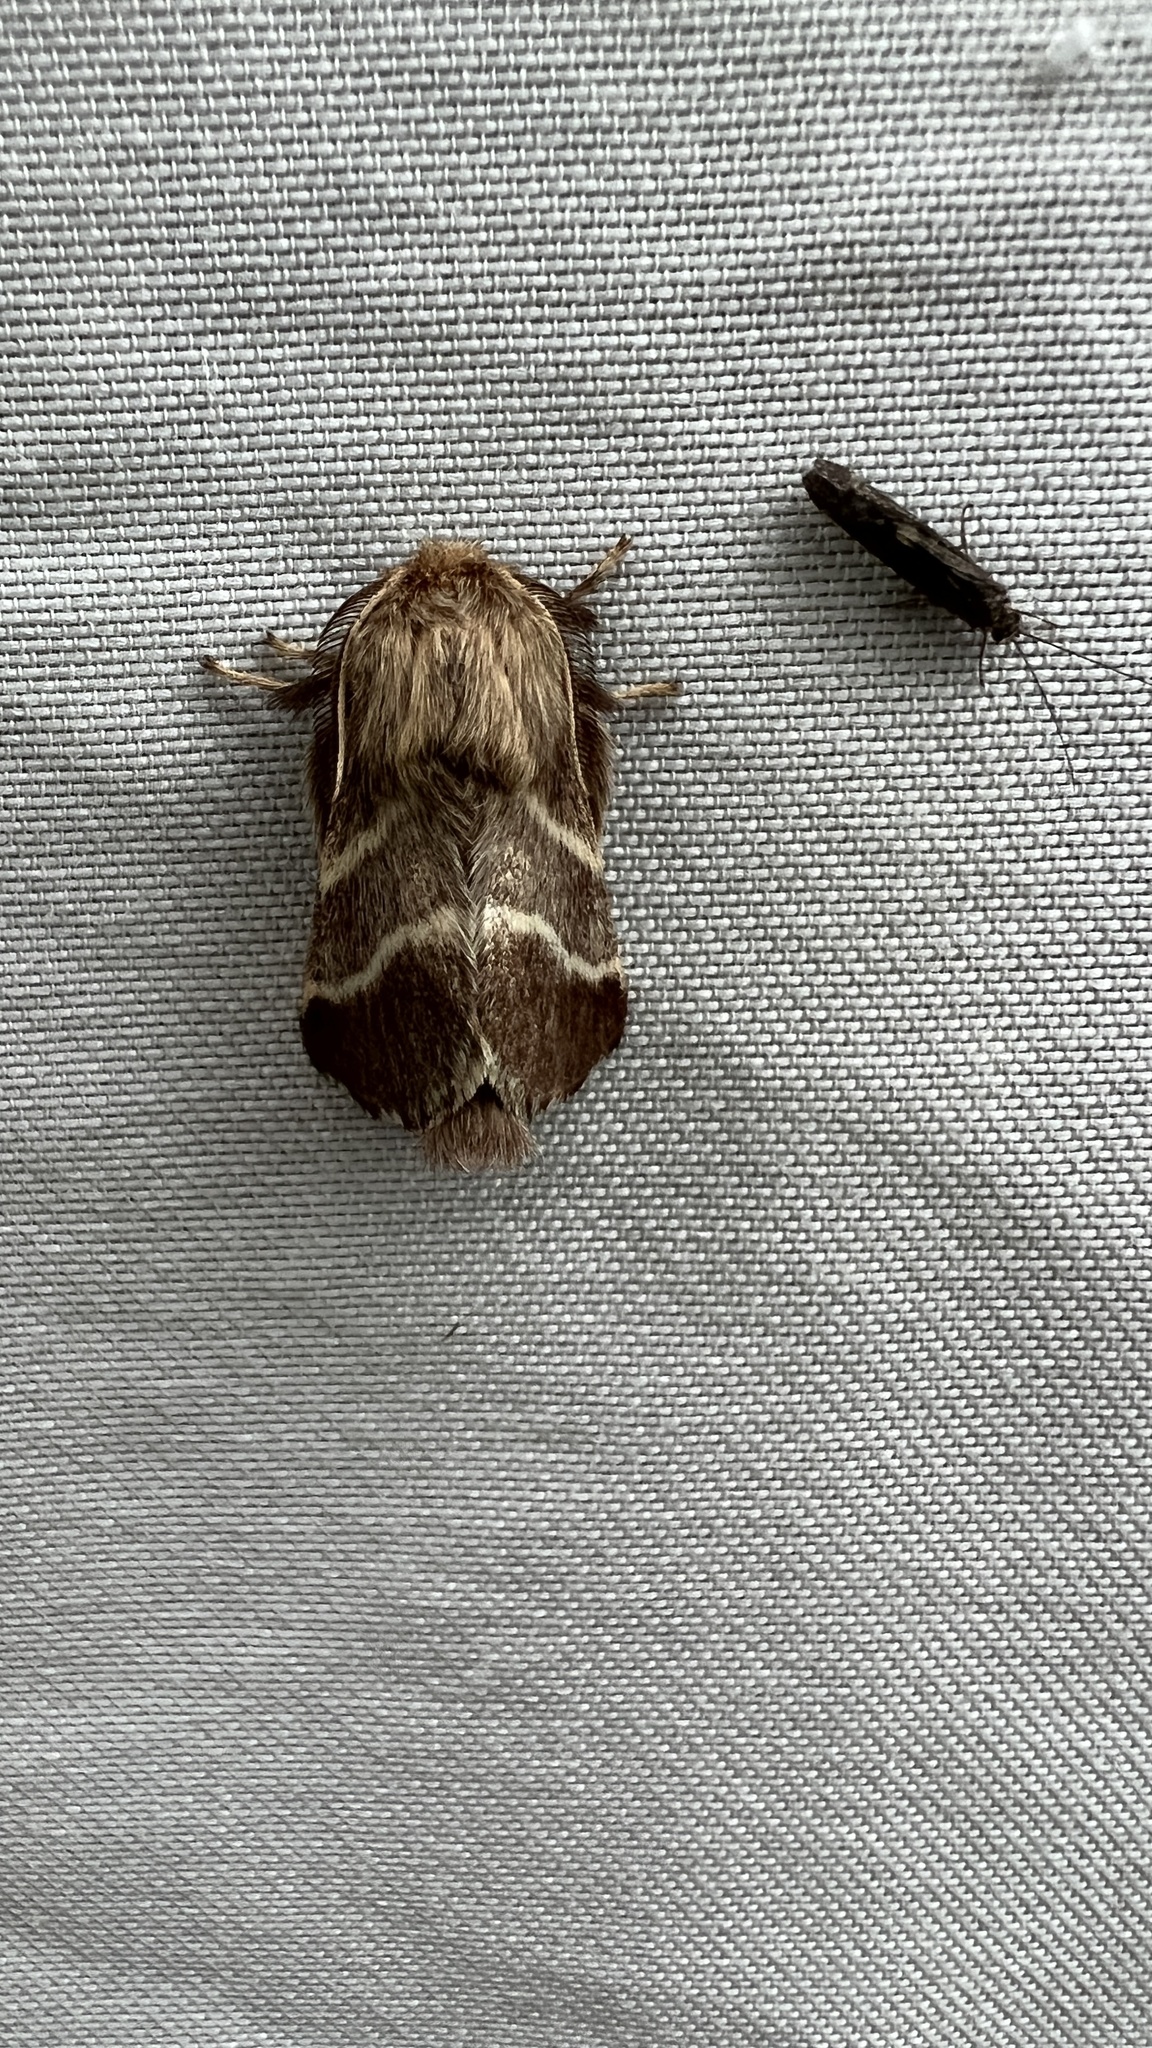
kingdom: Animalia
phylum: Arthropoda
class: Insecta
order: Lepidoptera
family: Lasiocampidae
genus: Malacosoma
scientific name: Malacosoma americana
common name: Eastern tent caterpillar moth
